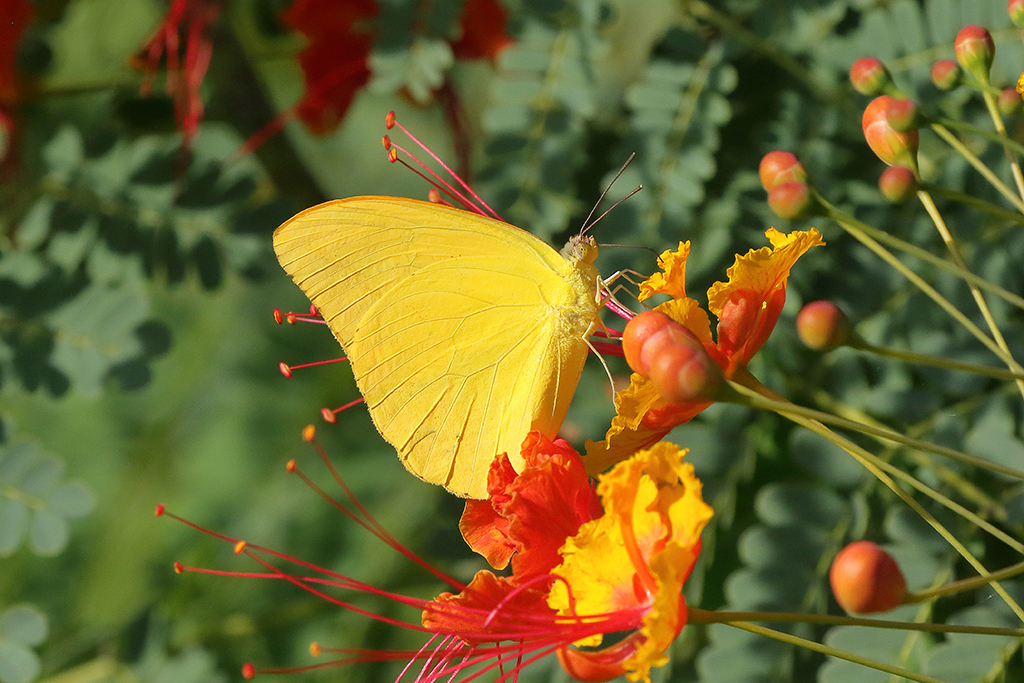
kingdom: Animalia
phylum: Arthropoda
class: Insecta
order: Lepidoptera
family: Pieridae
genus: Phoebis
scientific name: Phoebis agarithe
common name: Large orange sulphur
